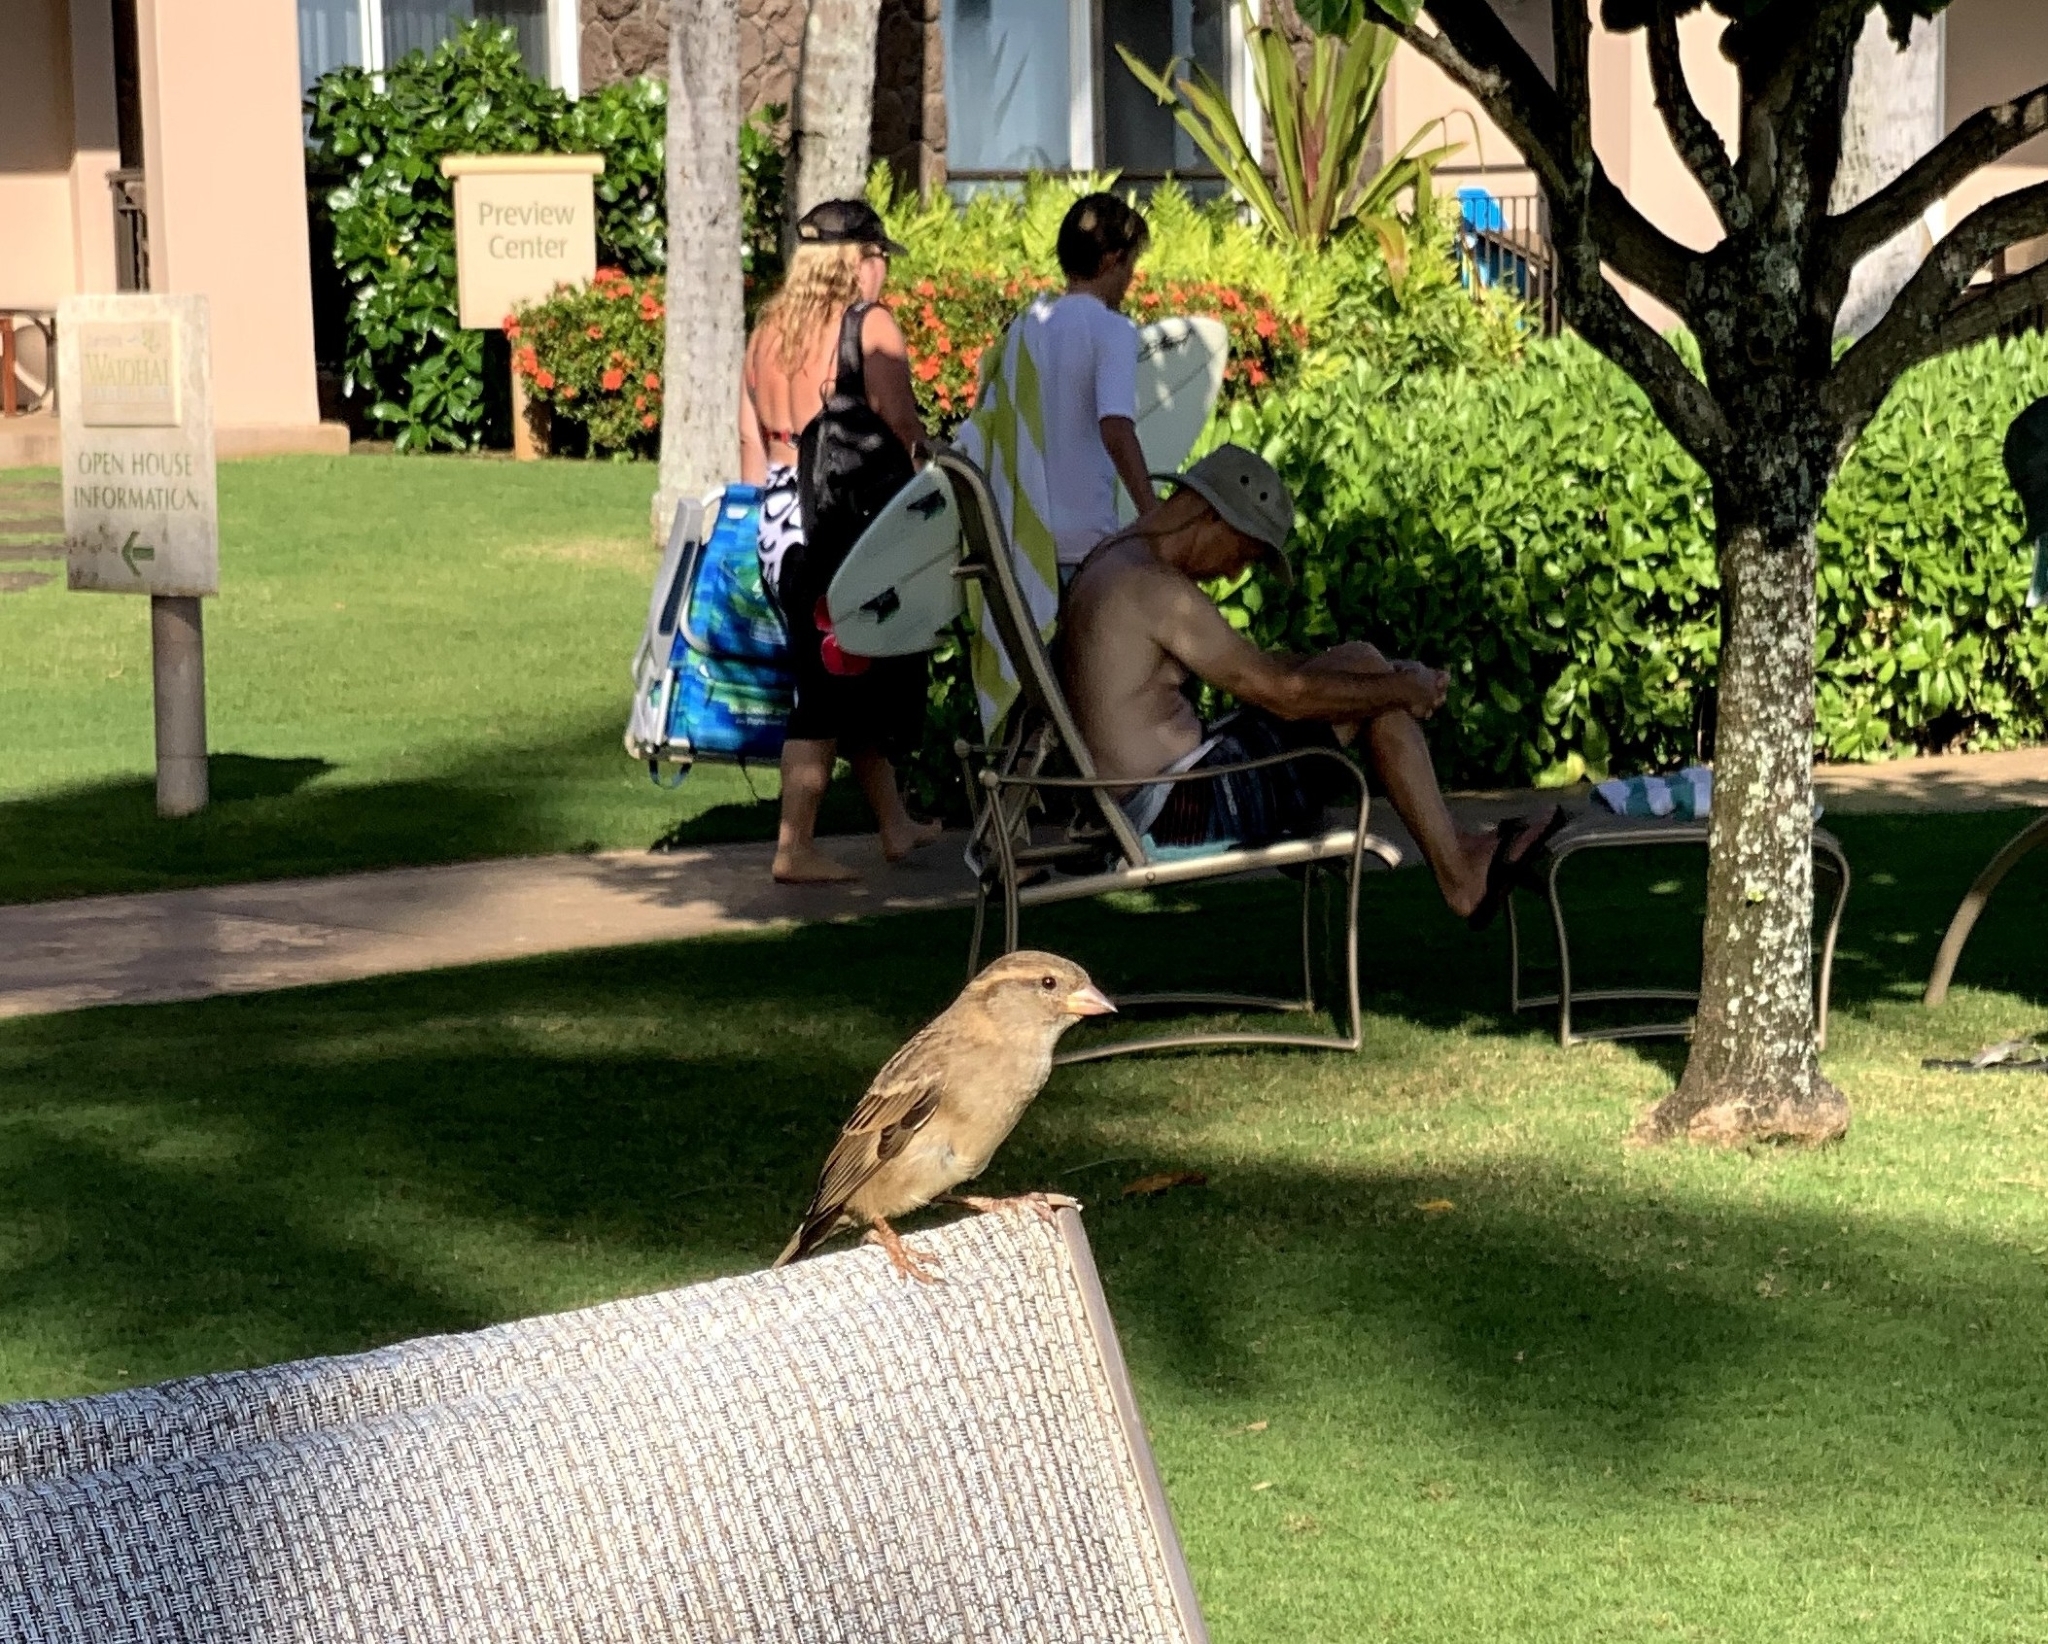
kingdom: Animalia
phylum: Chordata
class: Aves
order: Passeriformes
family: Passeridae
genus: Passer
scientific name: Passer domesticus
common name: House sparrow
